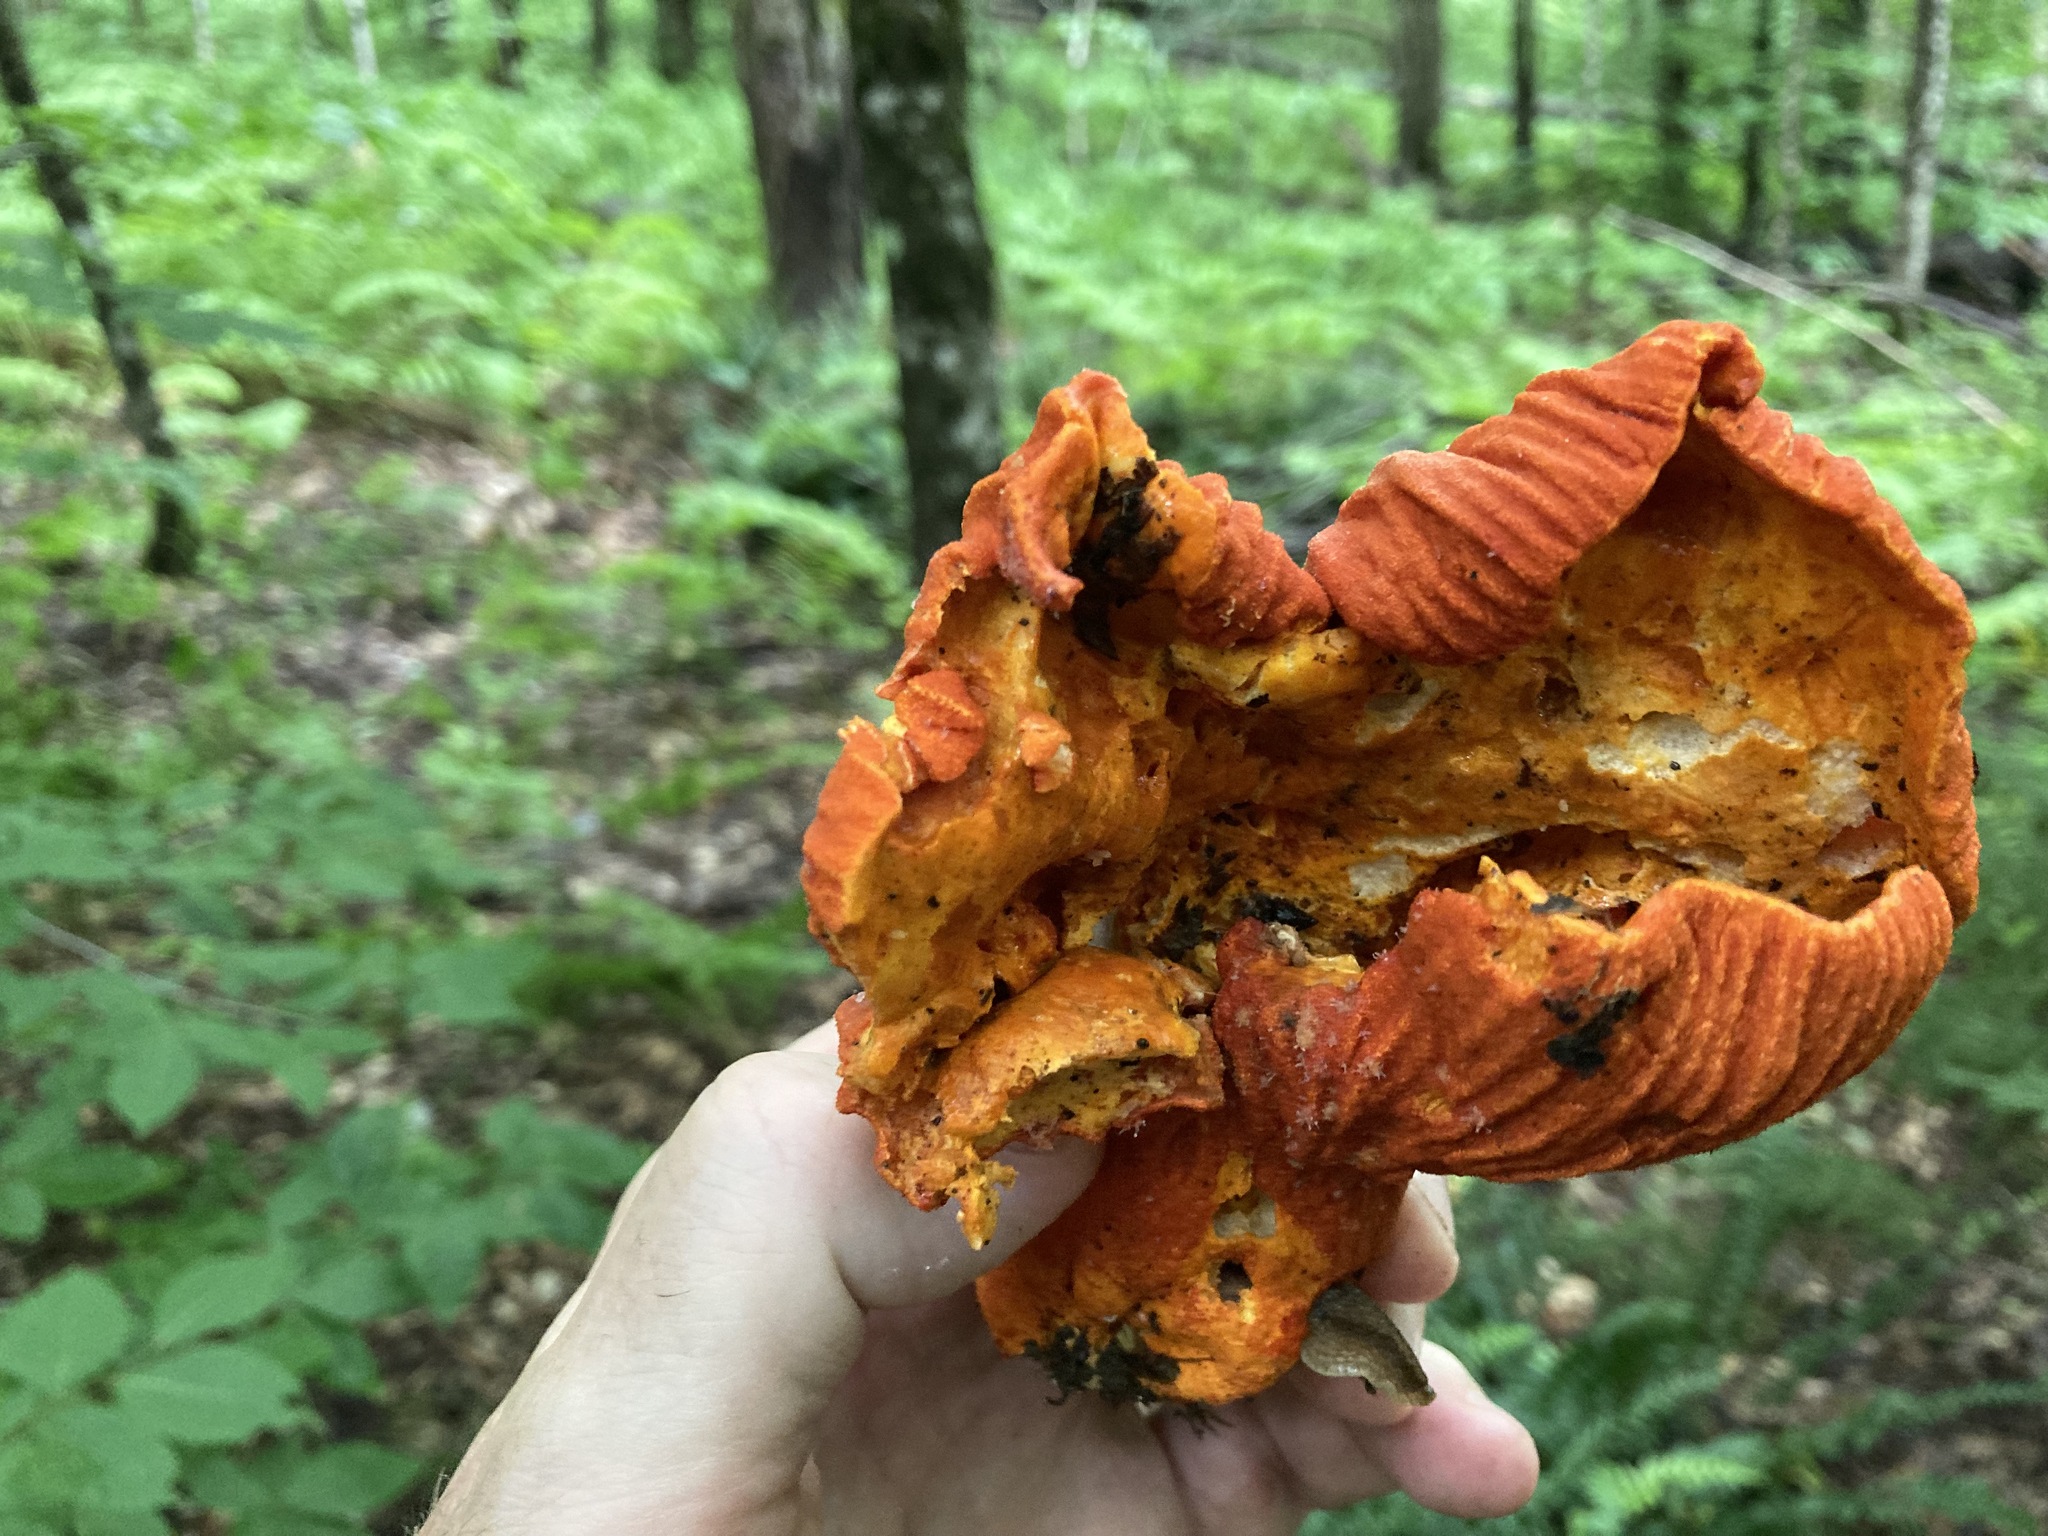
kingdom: Fungi
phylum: Ascomycota
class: Sordariomycetes
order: Hypocreales
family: Hypocreaceae
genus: Hypomyces
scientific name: Hypomyces lactifluorum
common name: Lobster mushroom
